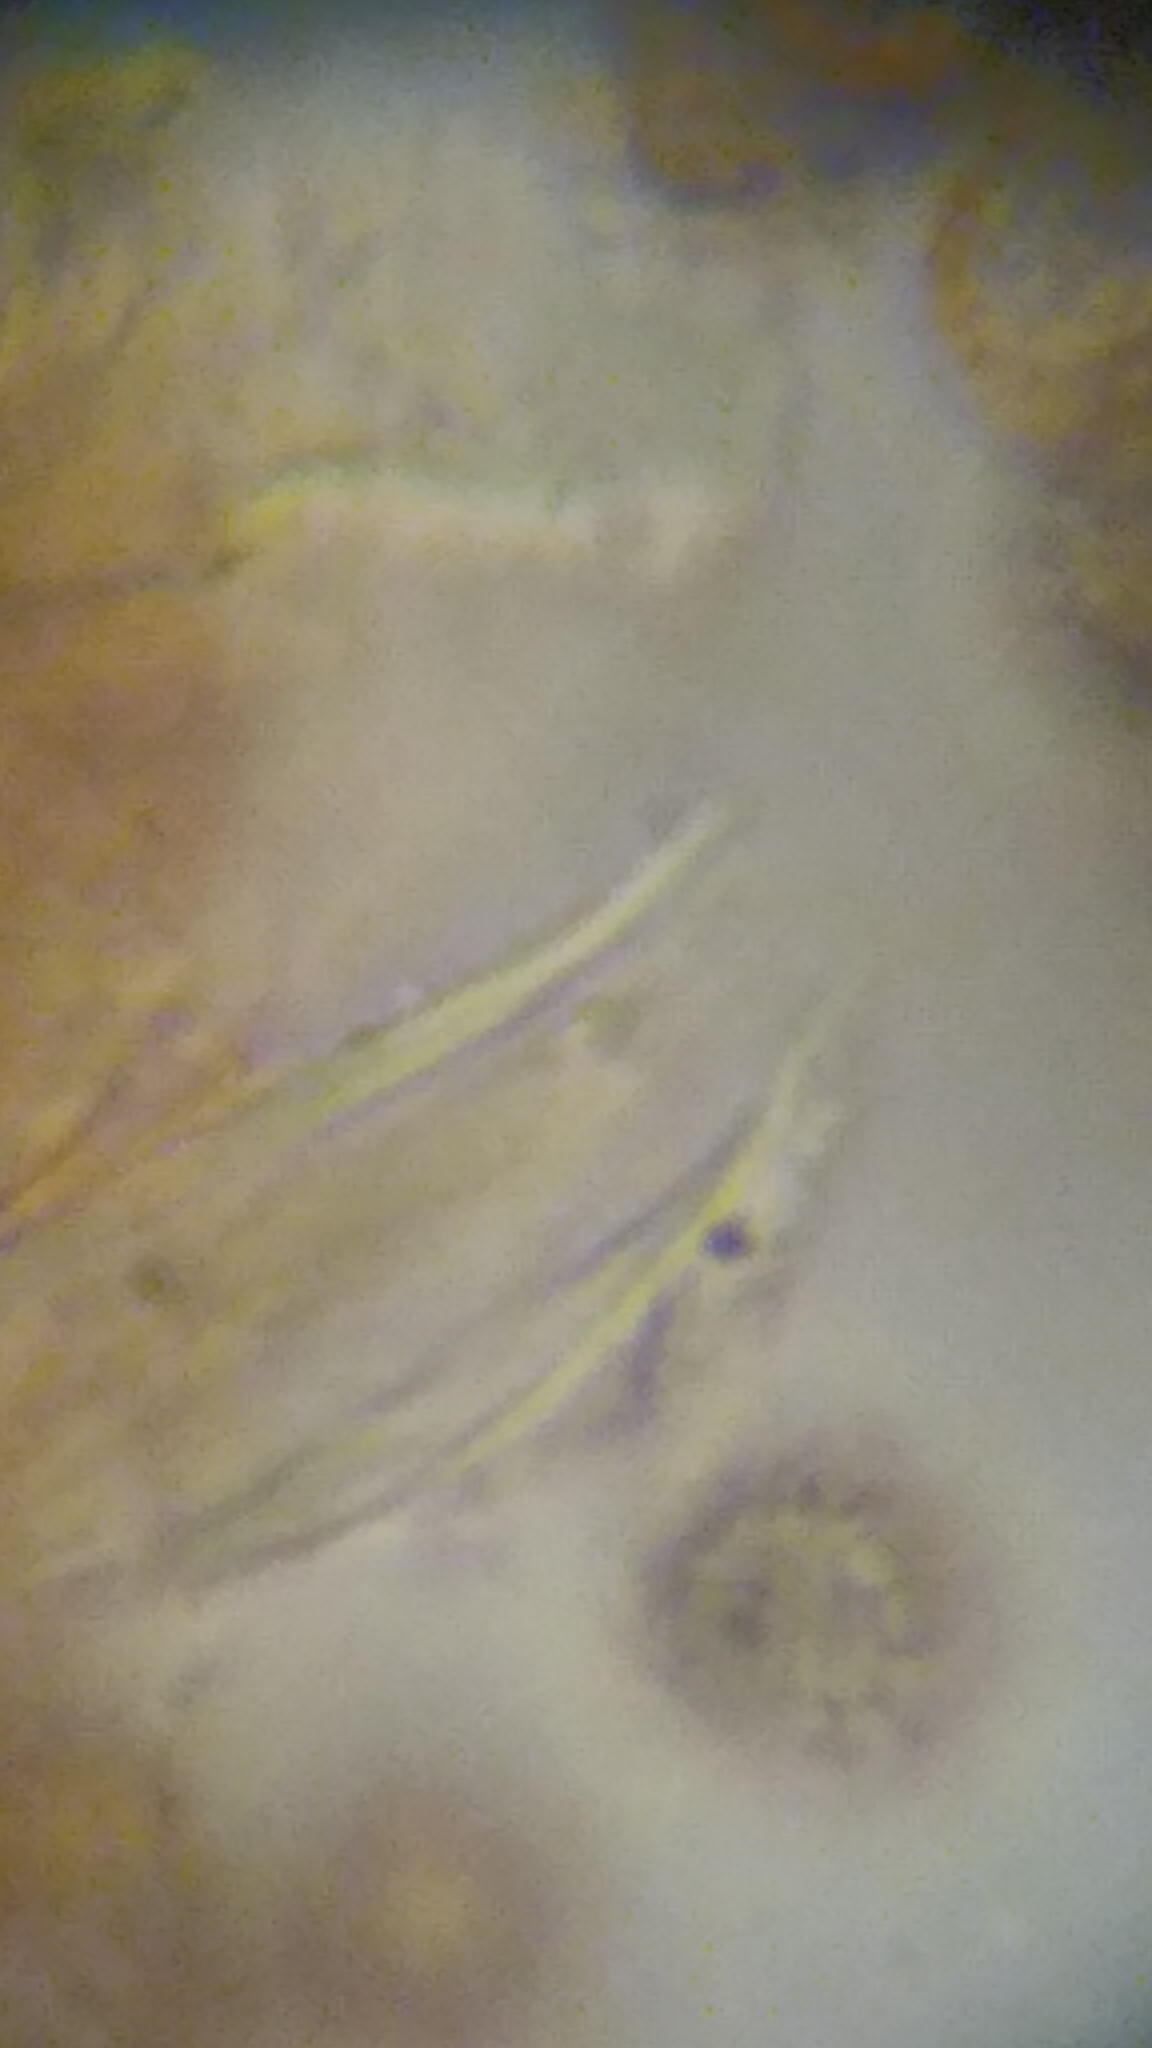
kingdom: Protozoa
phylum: Mycetozoa
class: Myxomycetes
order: Cribrariales
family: Tubiferaceae
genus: Siphoptychium
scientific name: Siphoptychium violaceum
